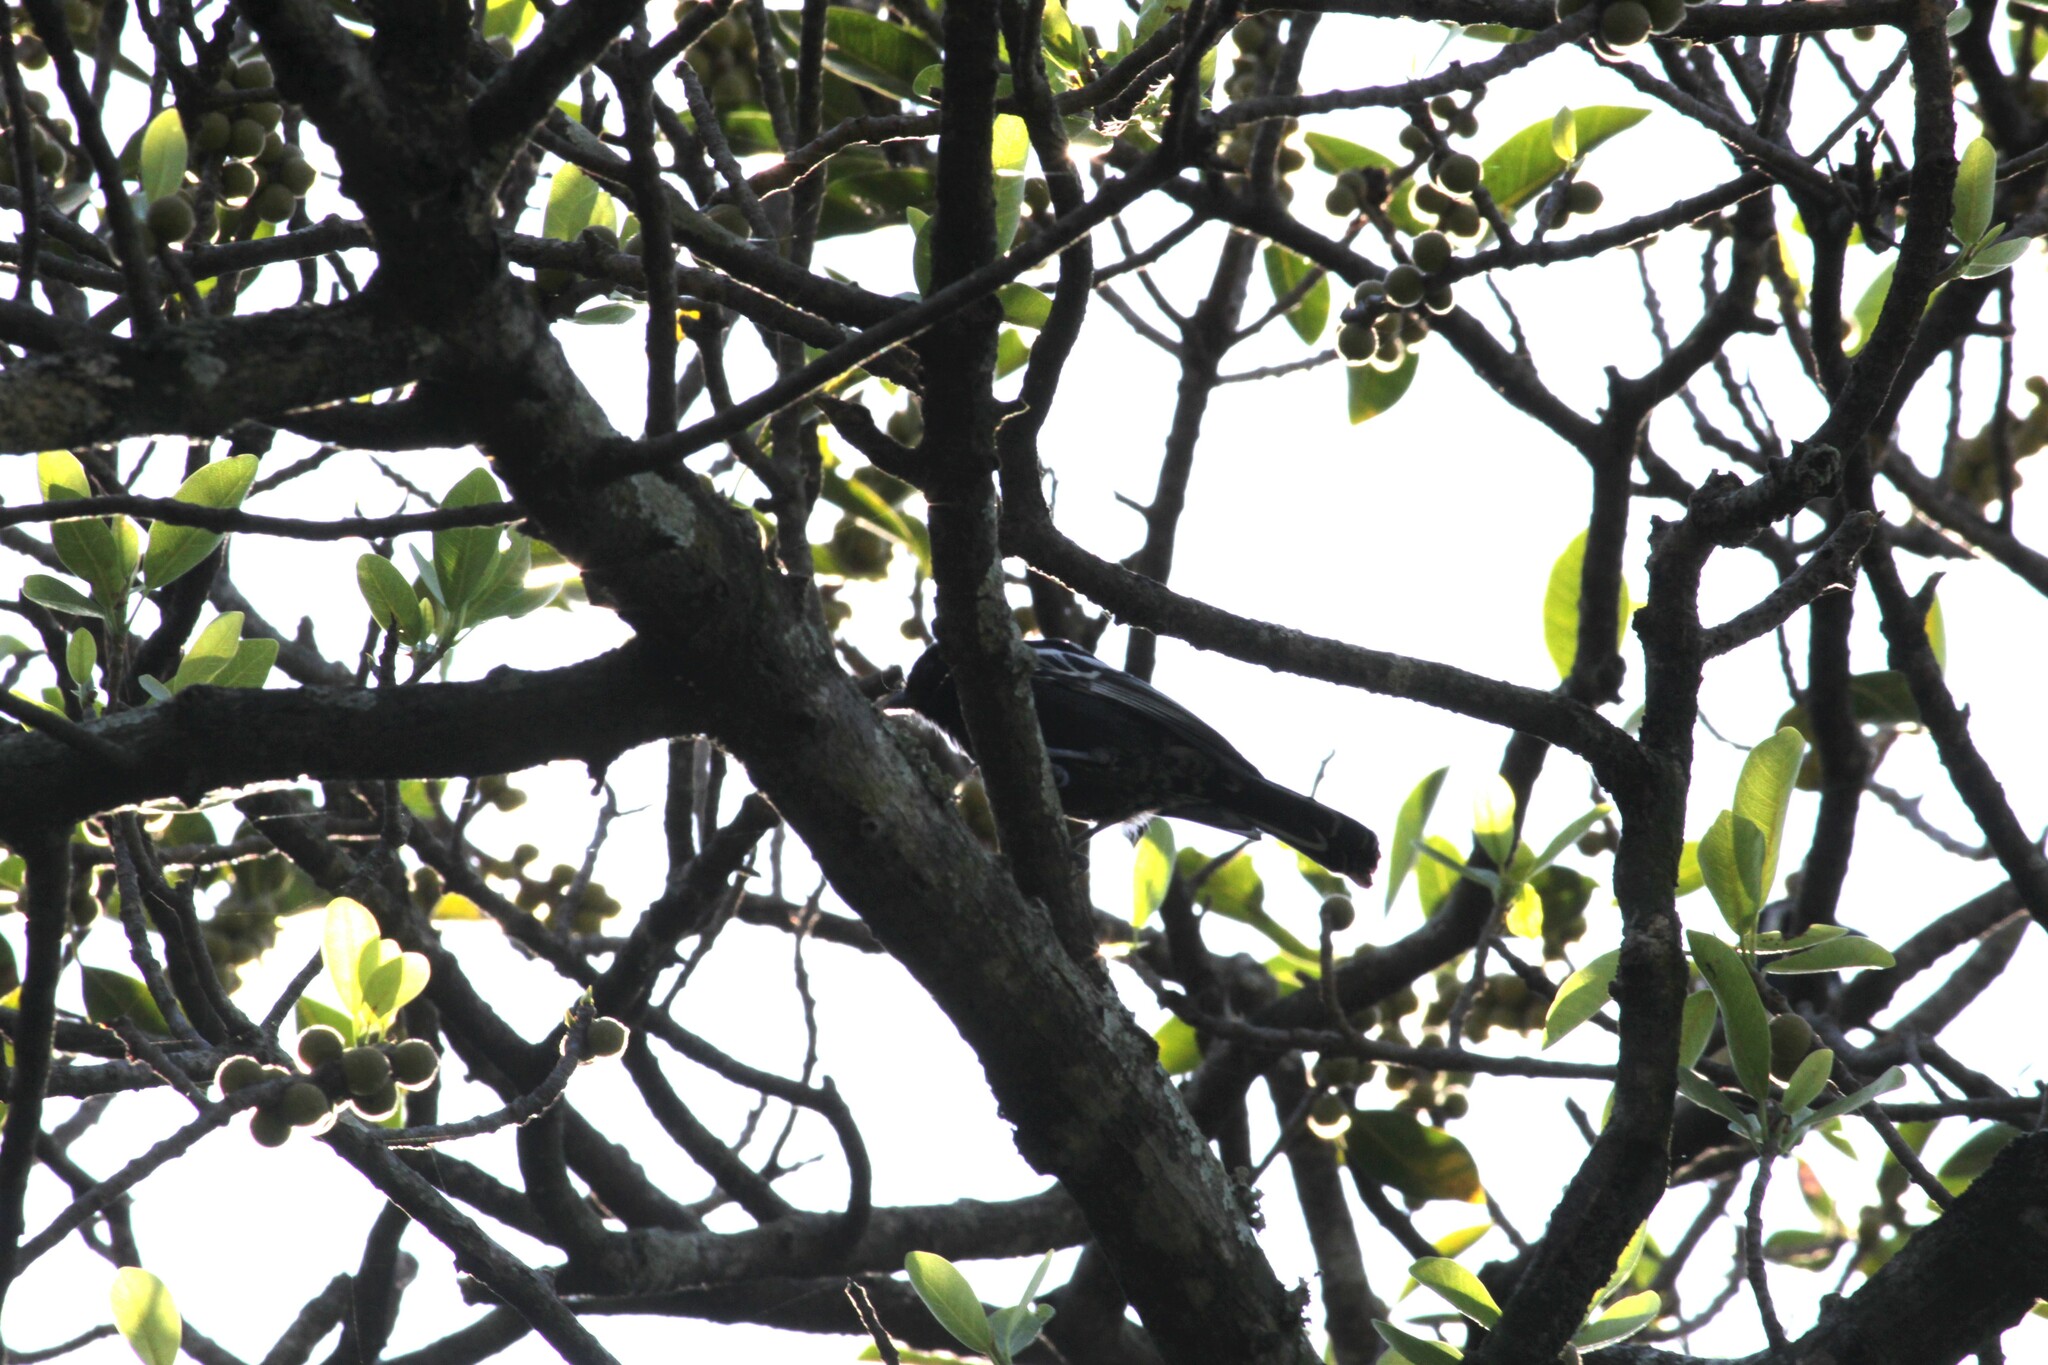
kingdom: Animalia
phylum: Chordata
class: Aves
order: Passeriformes
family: Paridae
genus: Parus
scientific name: Parus niger
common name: Southern black tit
